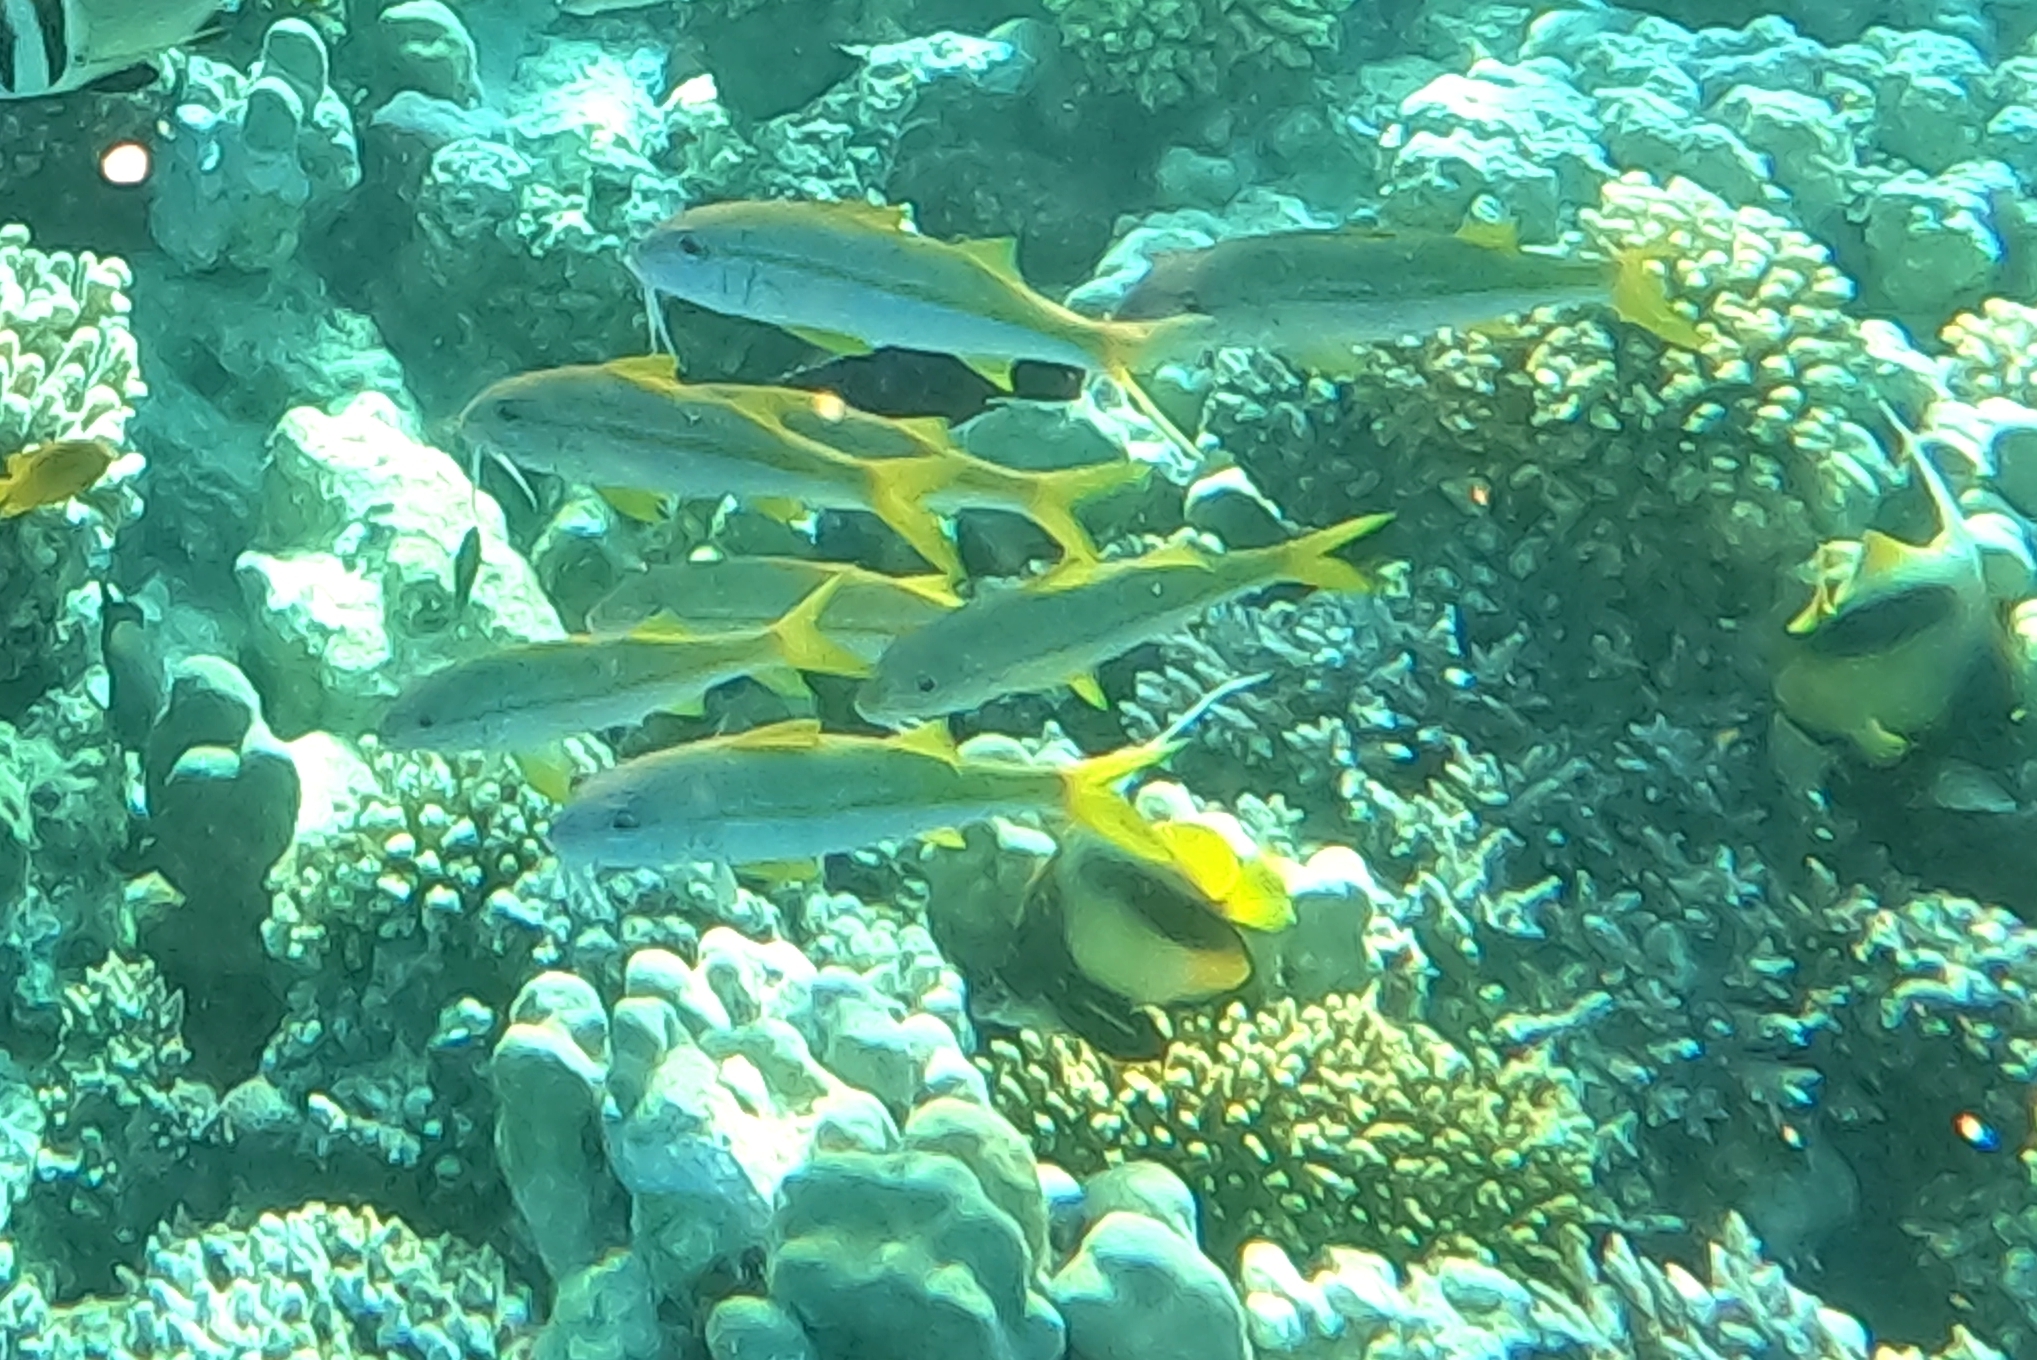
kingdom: Animalia
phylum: Chordata
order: Perciformes
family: Mullidae
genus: Mulloidichthys
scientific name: Mulloidichthys vanicolensis
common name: Yellowfin goatfish
